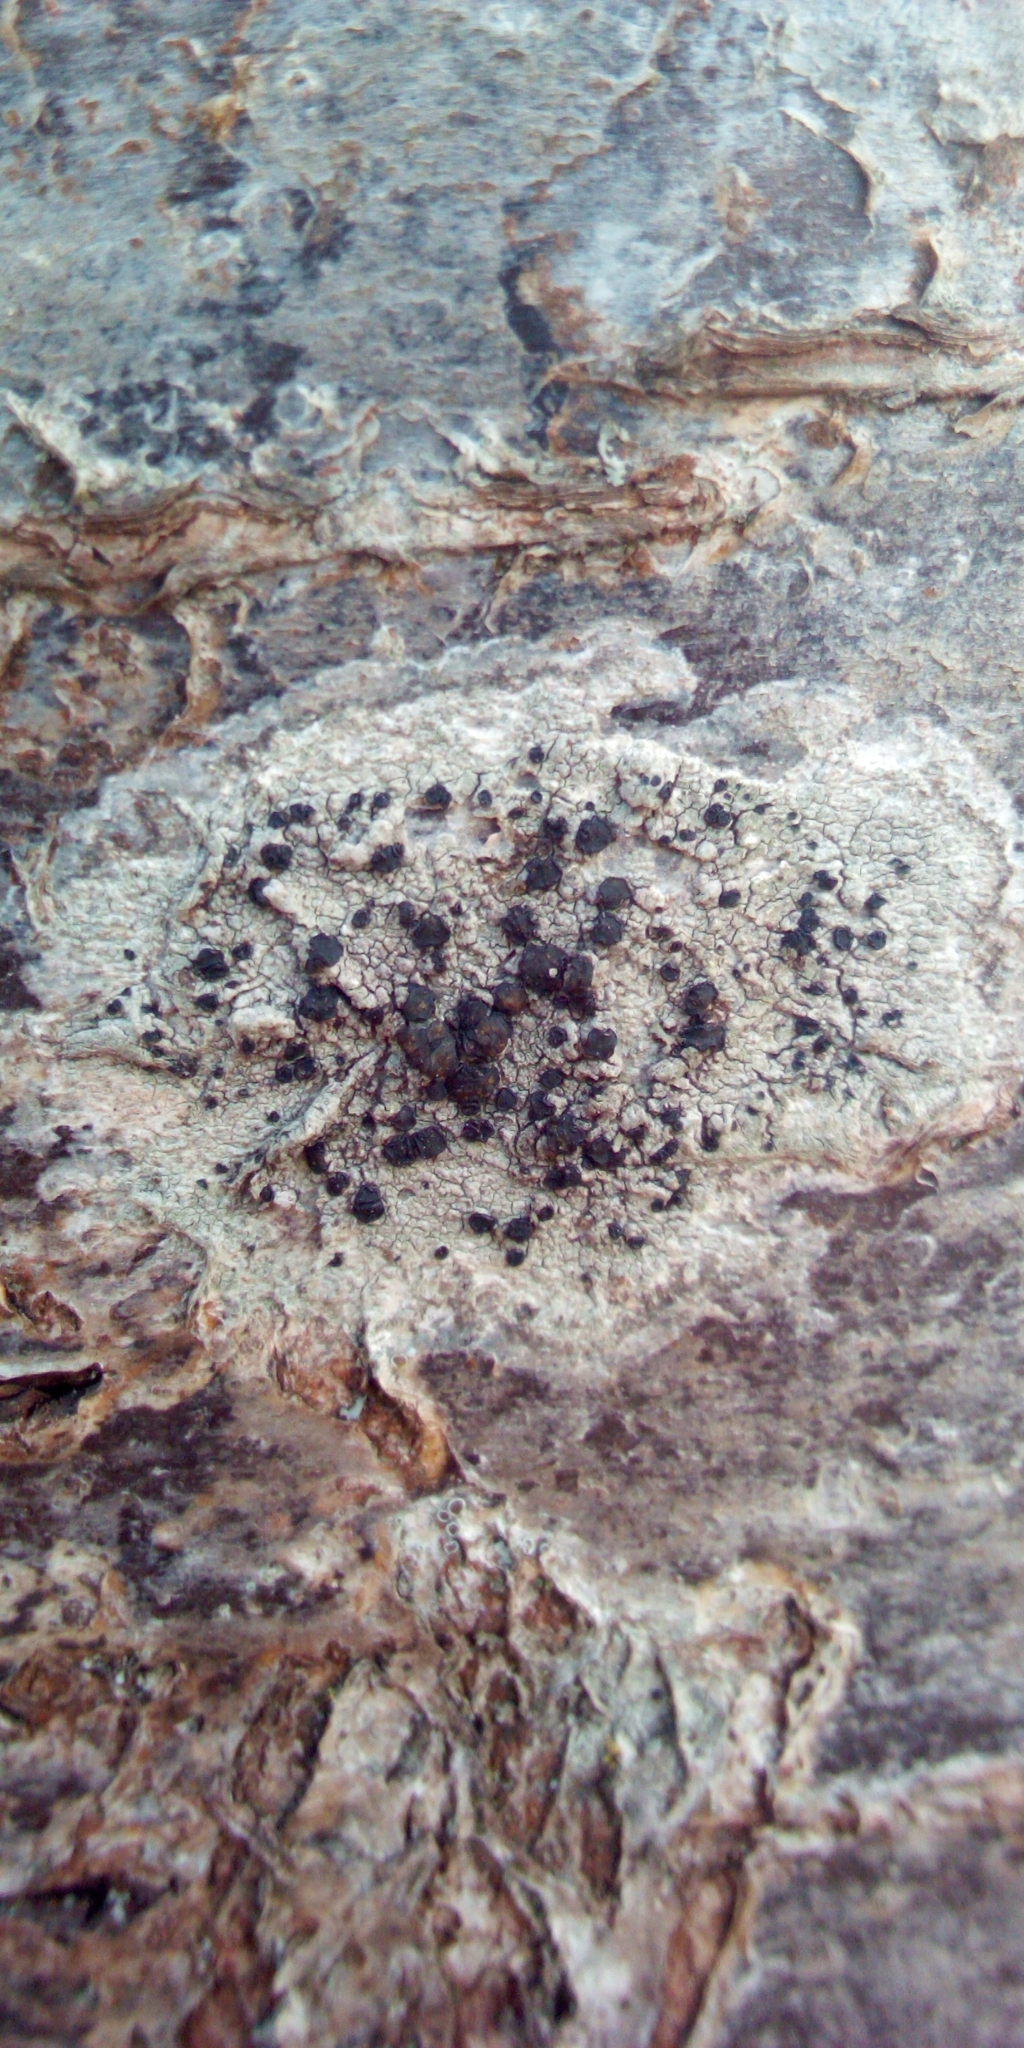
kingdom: Fungi
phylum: Ascomycota
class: Lecanoromycetes
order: Lecanorales
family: Lecanoraceae
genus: Lecidella
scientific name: Lecidella elaeochroma
